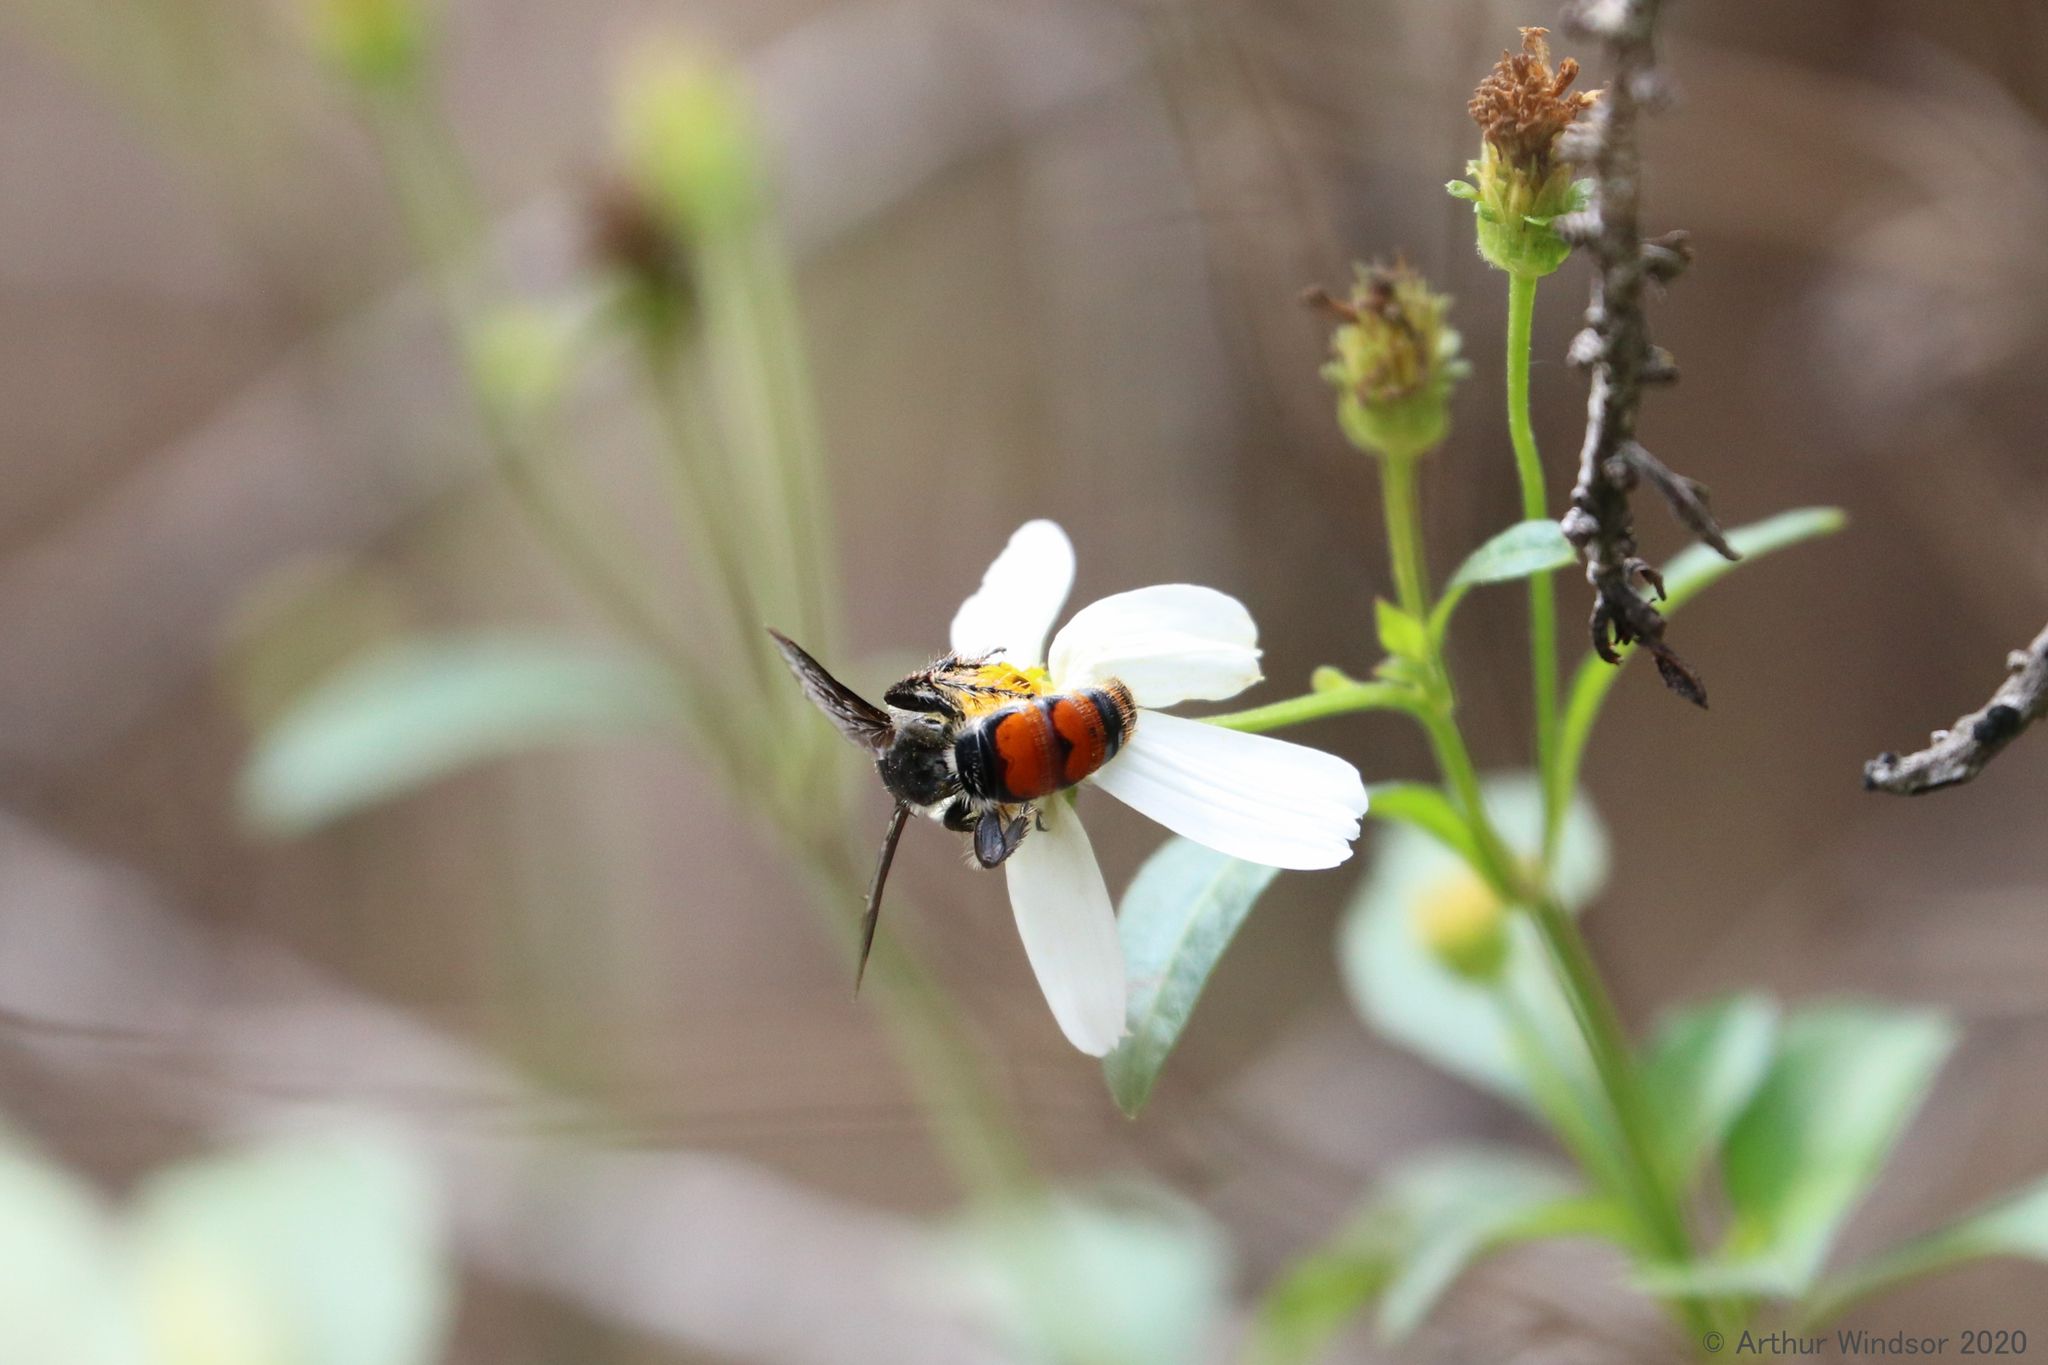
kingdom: Animalia
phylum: Arthropoda
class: Insecta
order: Hymenoptera
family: Scoliidae
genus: Dielis
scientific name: Dielis dorsata
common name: Scoliid wasp
